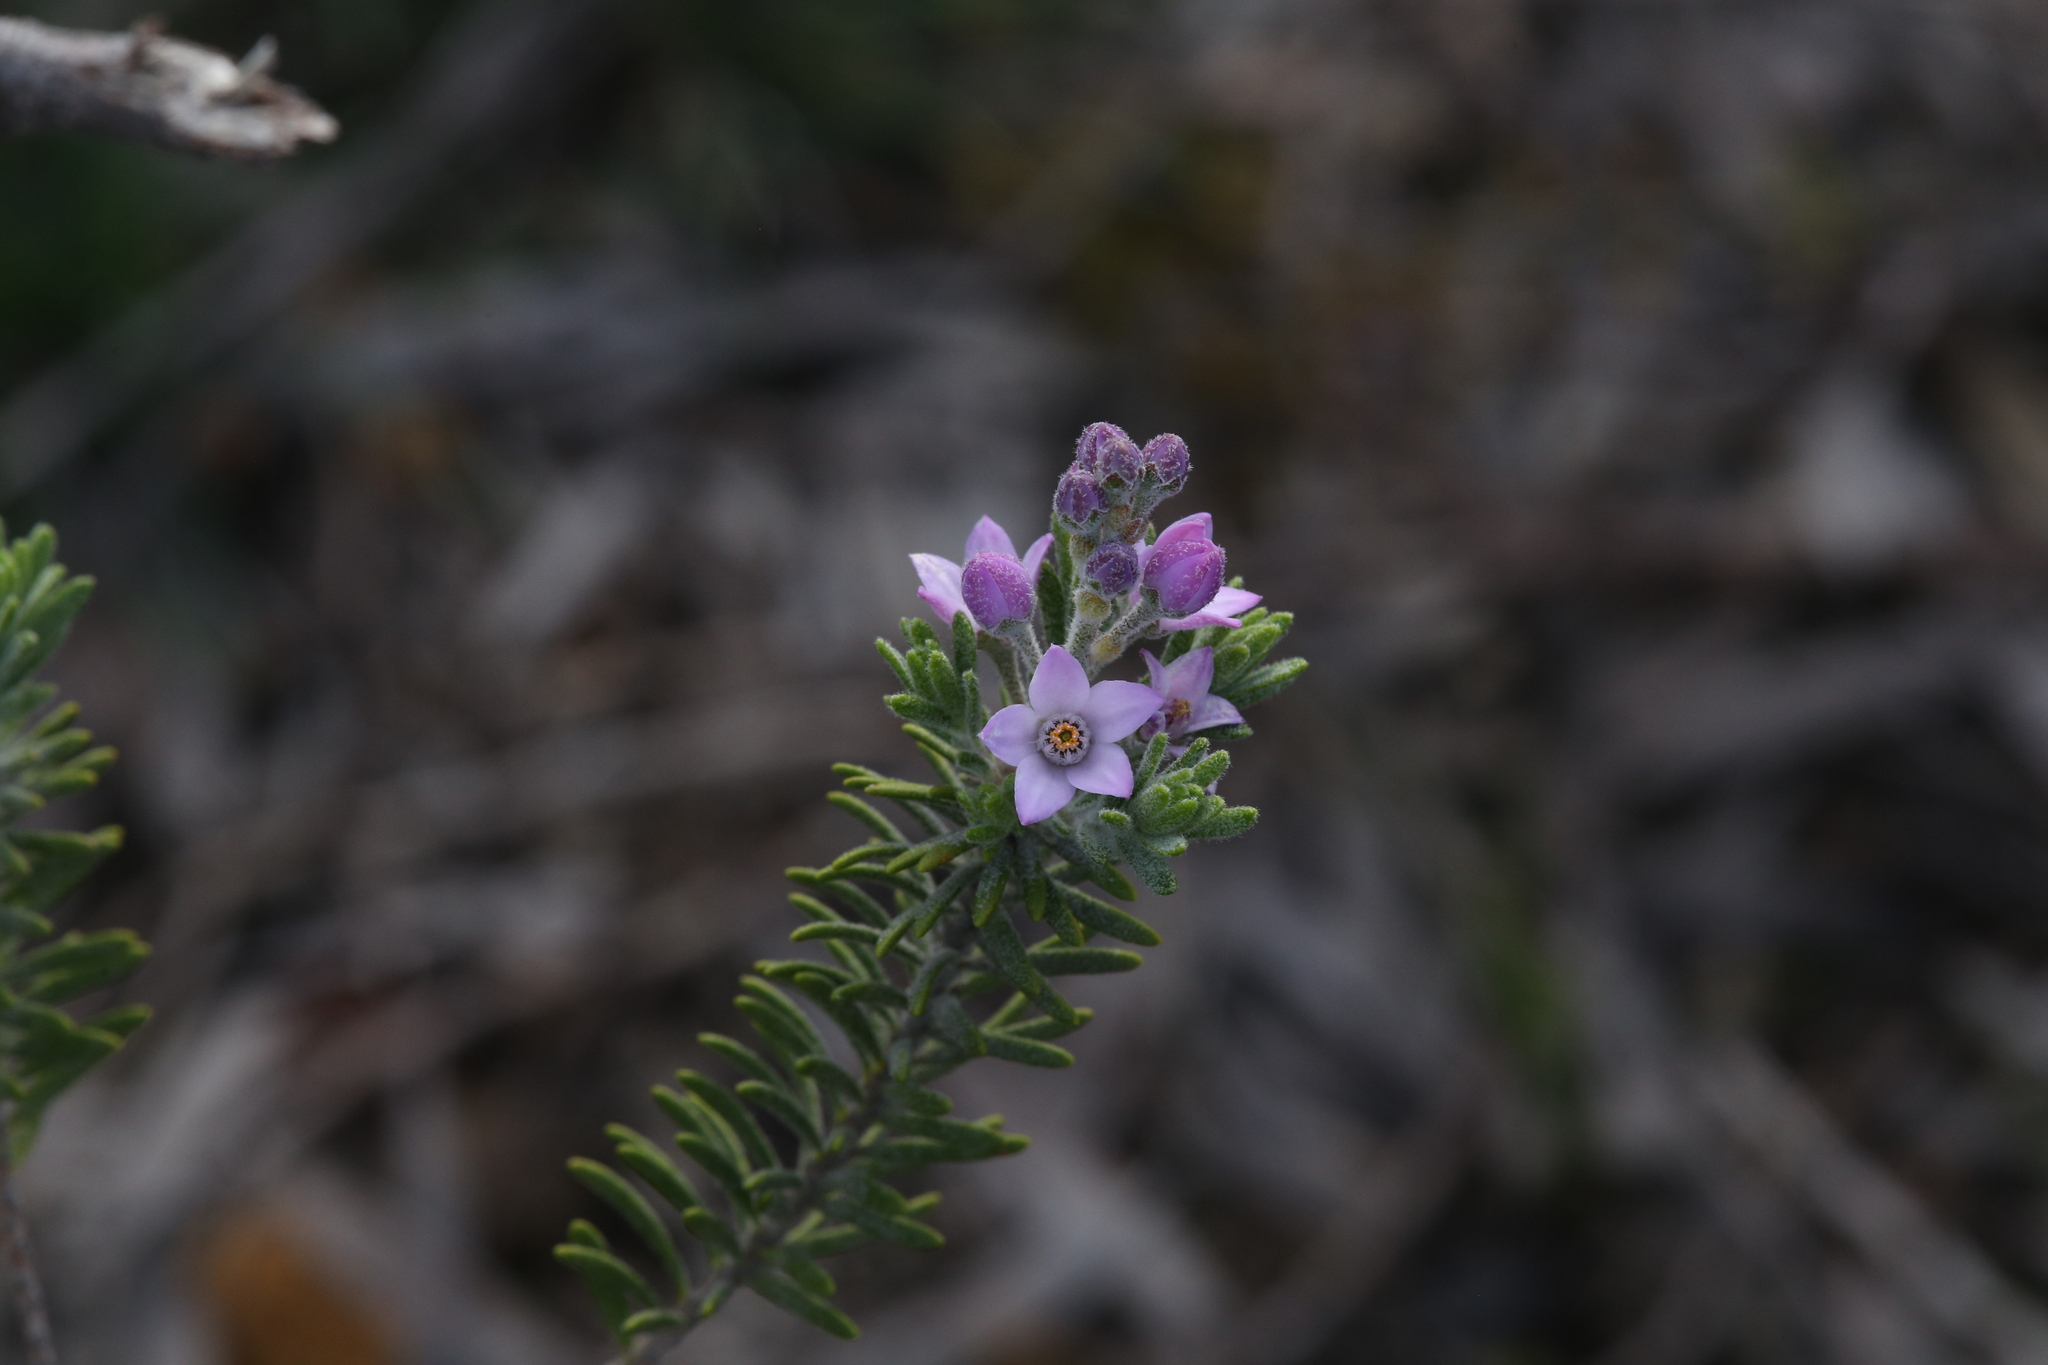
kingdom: Plantae
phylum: Tracheophyta
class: Magnoliopsida
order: Sapindales
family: Rutaceae
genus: Philotheca
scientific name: Philotheca spicata
